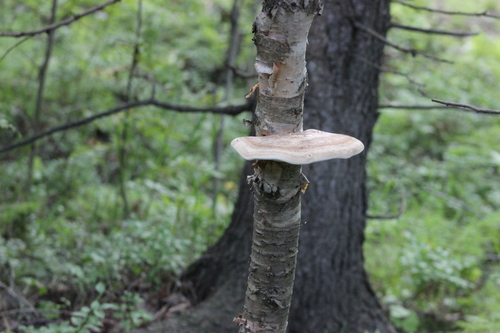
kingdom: Fungi
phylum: Basidiomycota
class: Agaricomycetes
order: Polyporales
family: Fomitopsidaceae
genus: Fomitopsis
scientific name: Fomitopsis betulina
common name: Birch polypore
